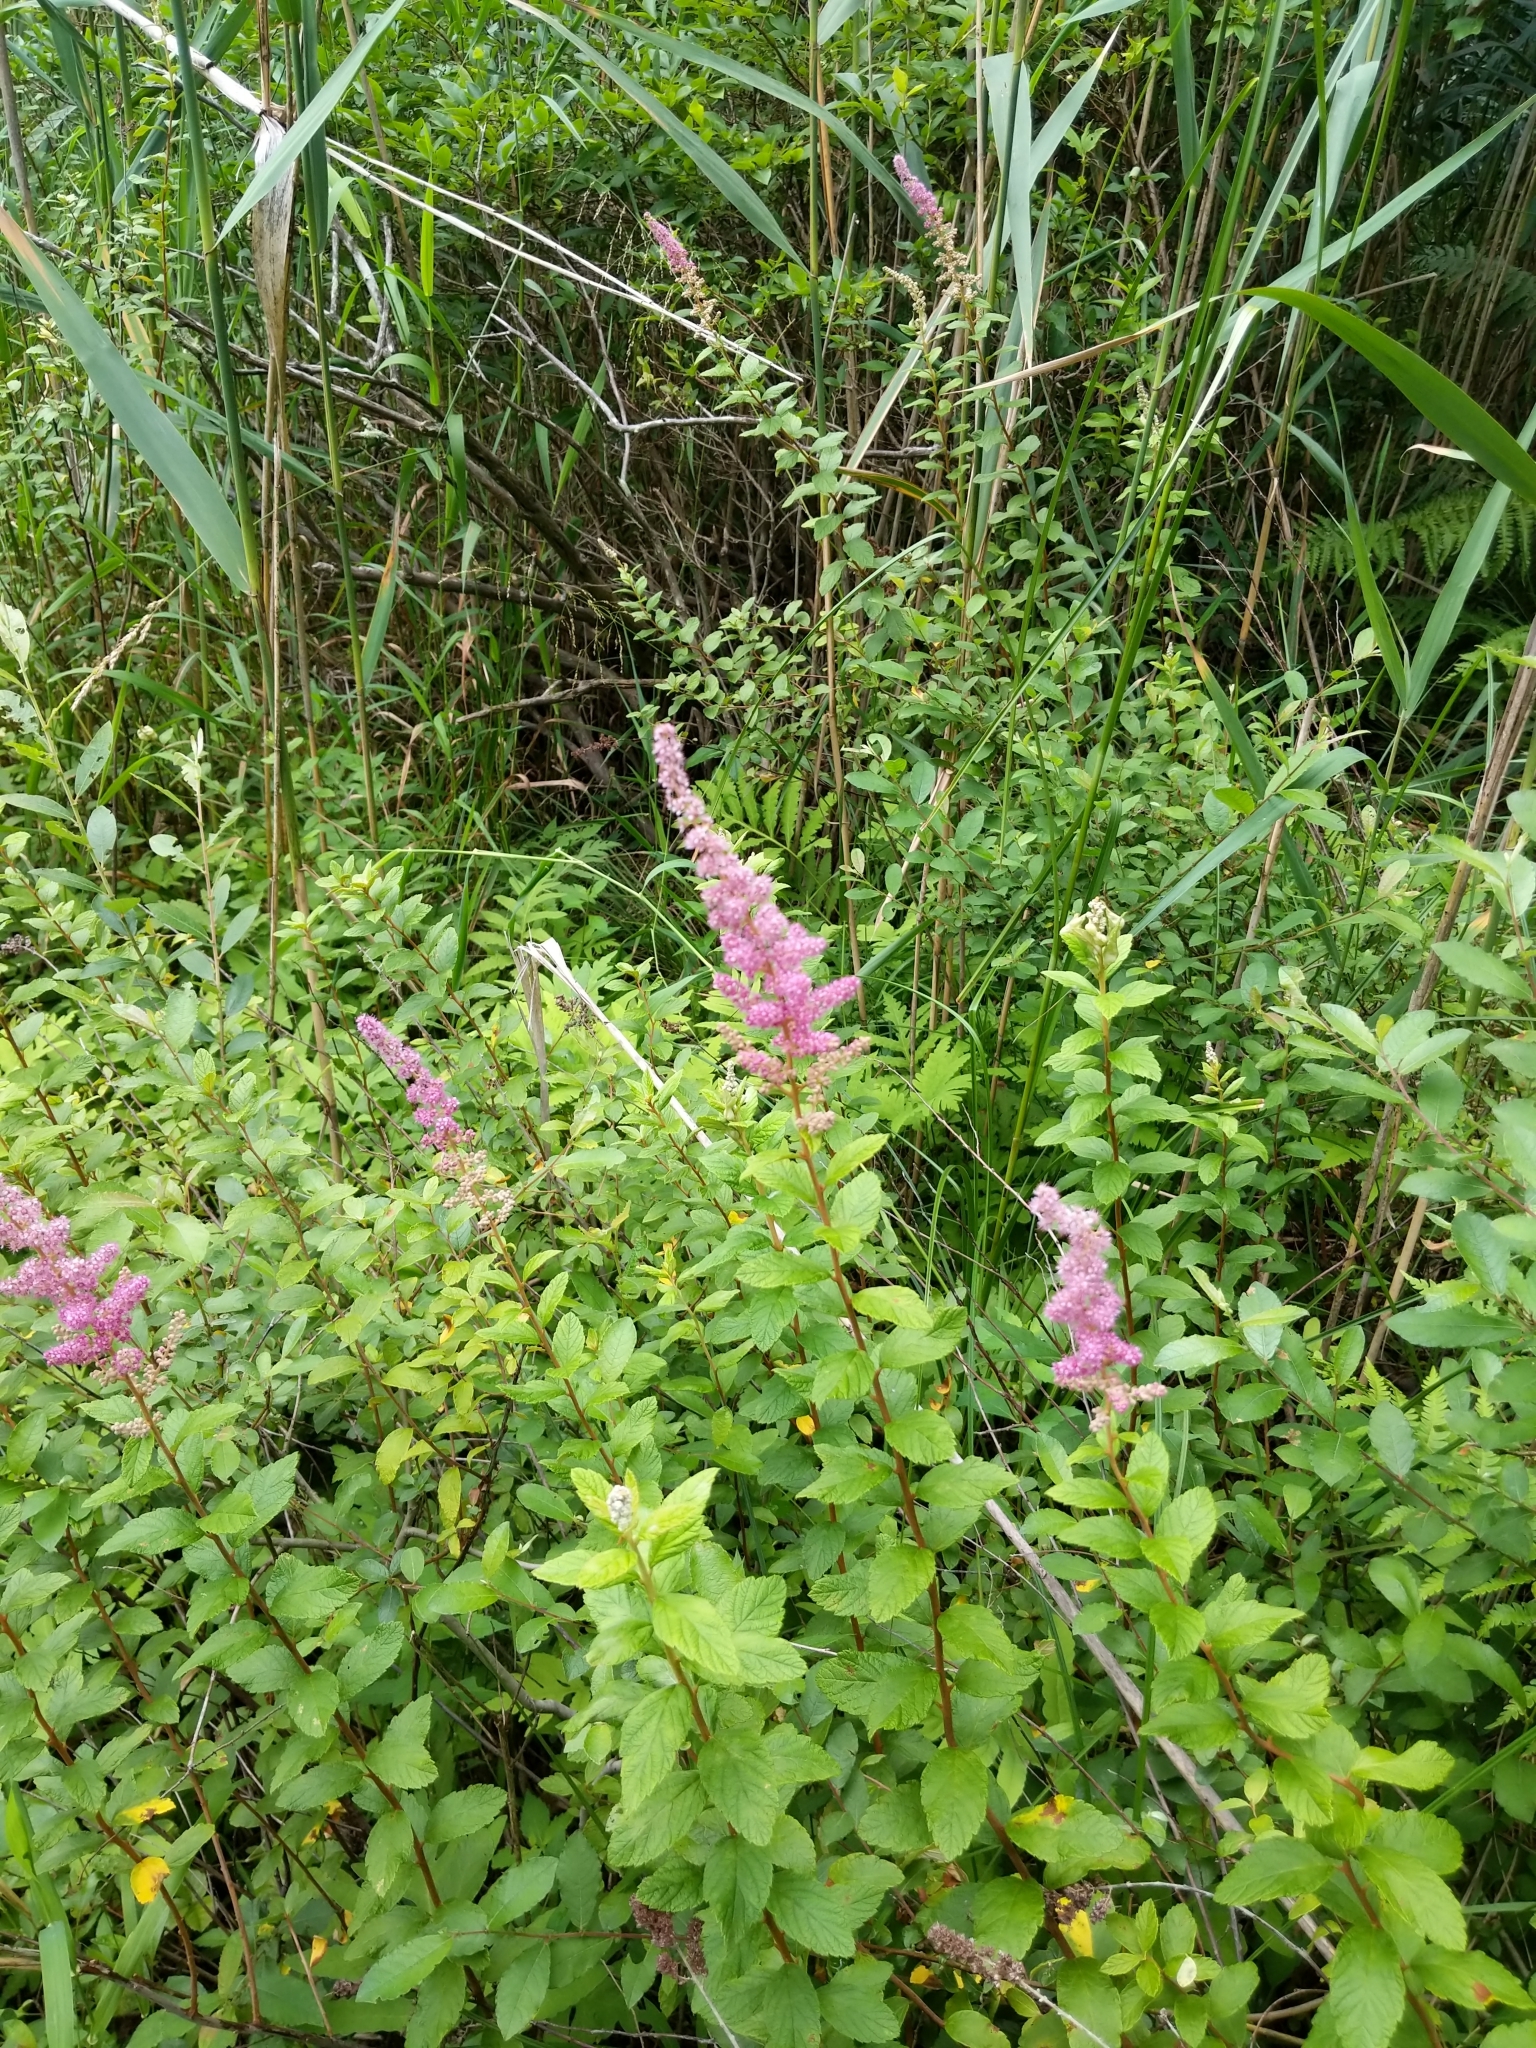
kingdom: Plantae
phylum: Tracheophyta
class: Magnoliopsida
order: Rosales
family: Rosaceae
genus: Spiraea
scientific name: Spiraea tomentosa
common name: Hardhack
